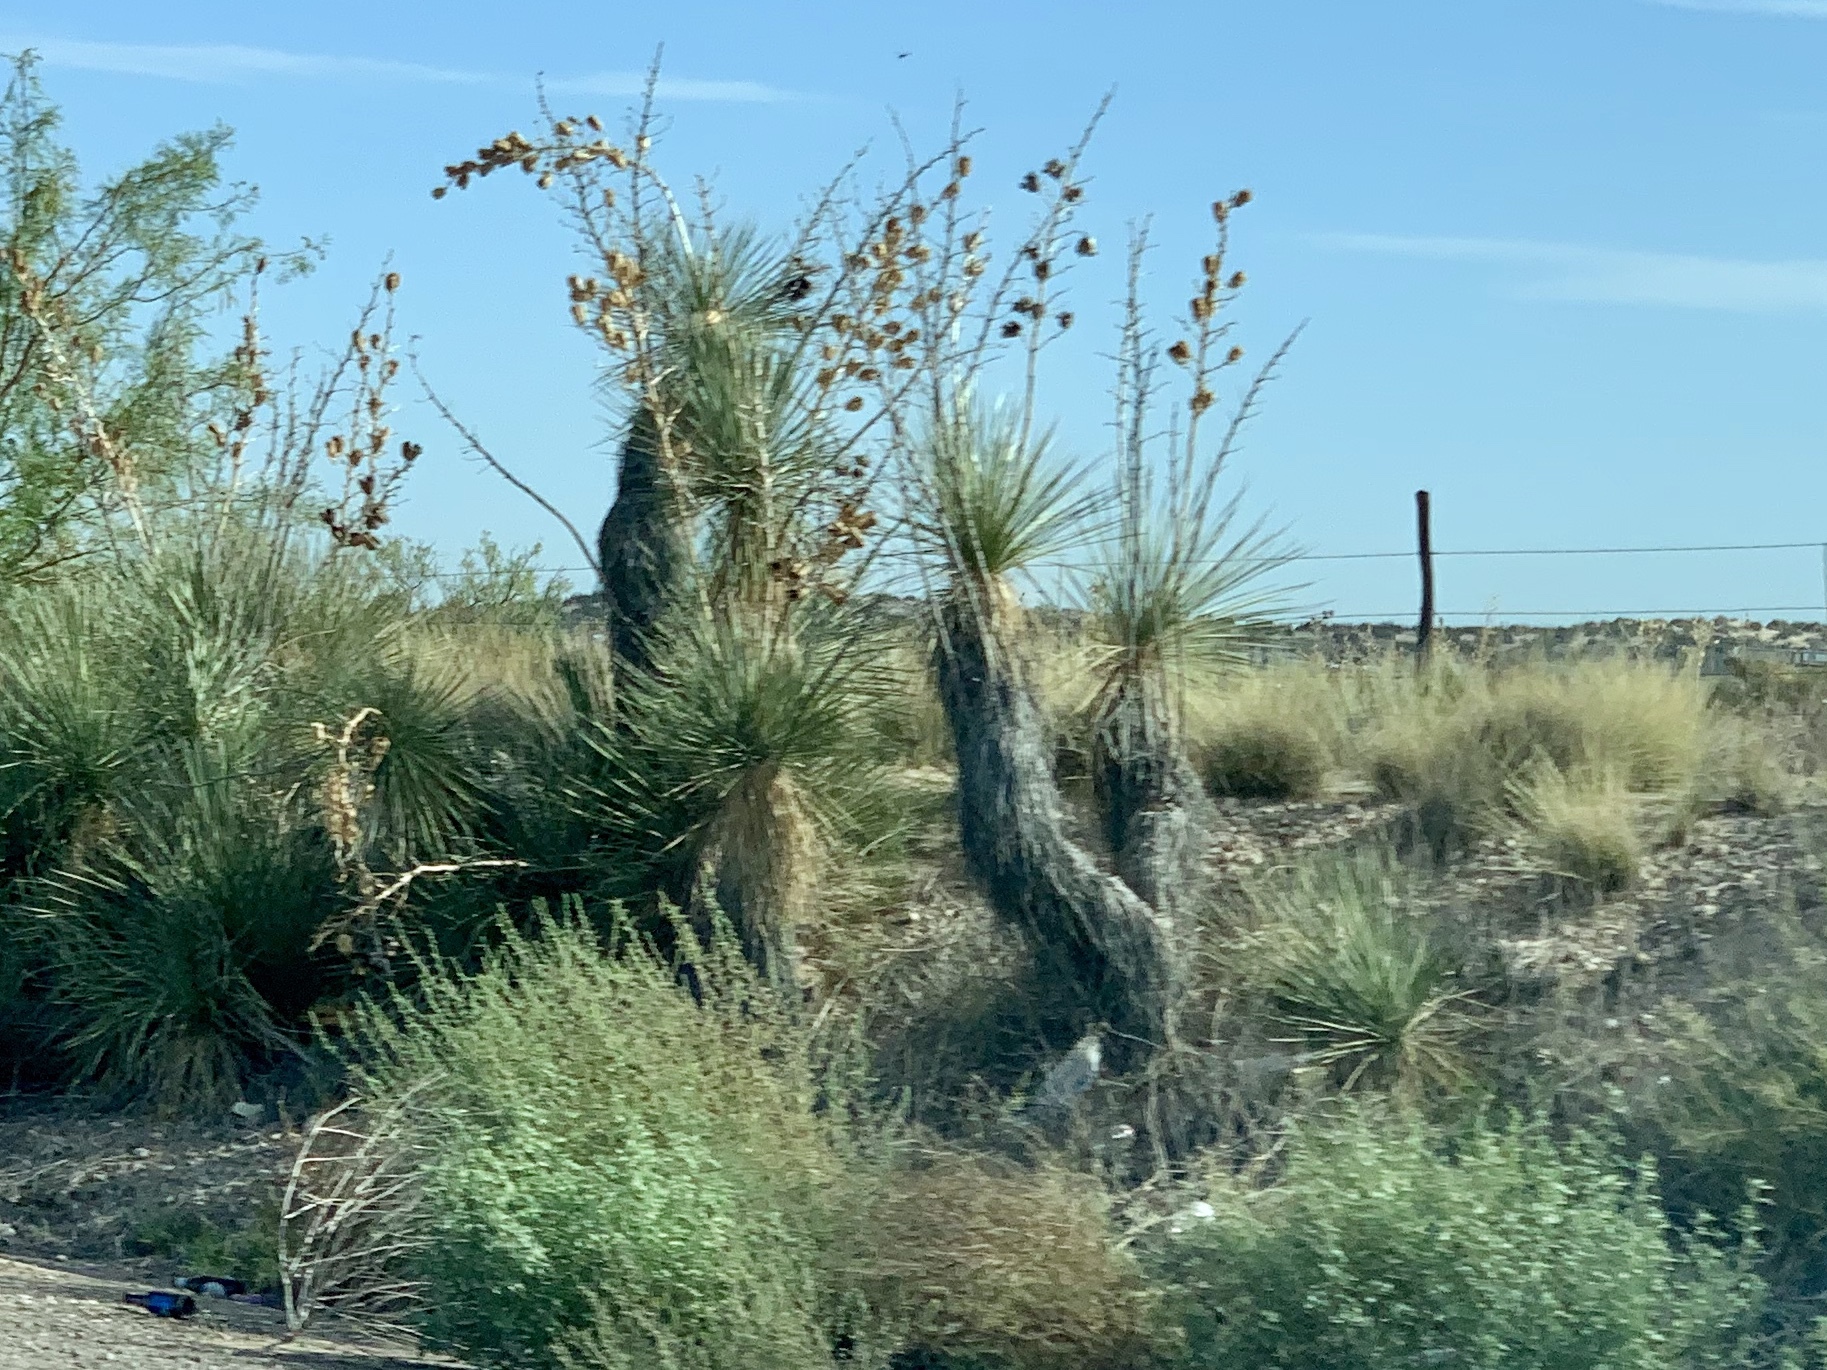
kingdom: Plantae
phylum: Tracheophyta
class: Liliopsida
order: Asparagales
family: Asparagaceae
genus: Yucca
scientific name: Yucca elata
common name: Palmella
